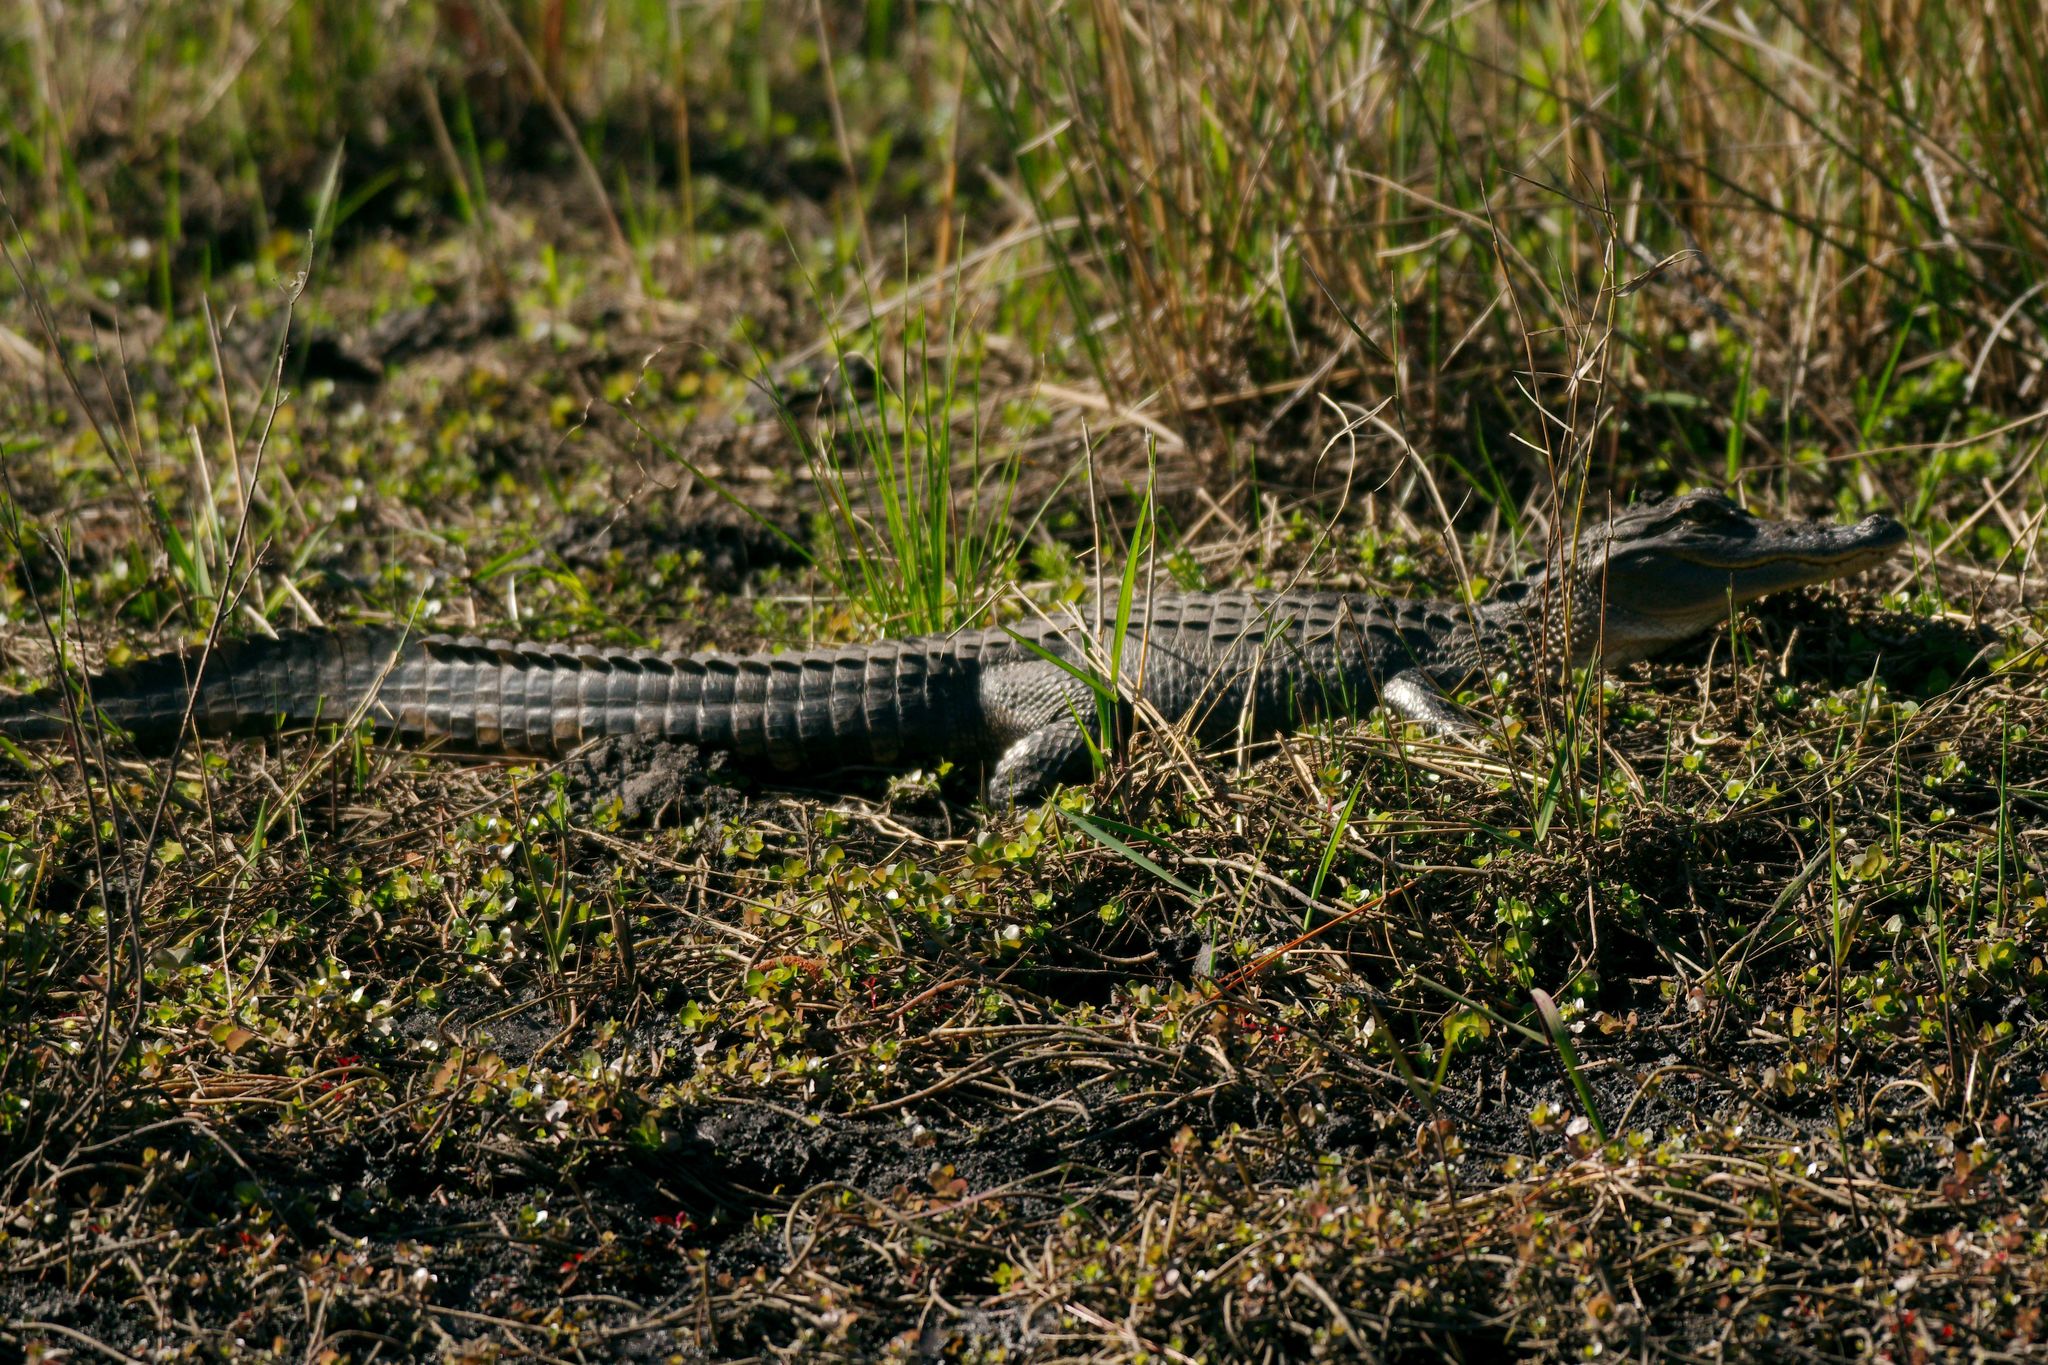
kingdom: Animalia
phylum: Chordata
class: Crocodylia
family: Alligatoridae
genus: Alligator
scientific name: Alligator mississippiensis
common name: American alligator
